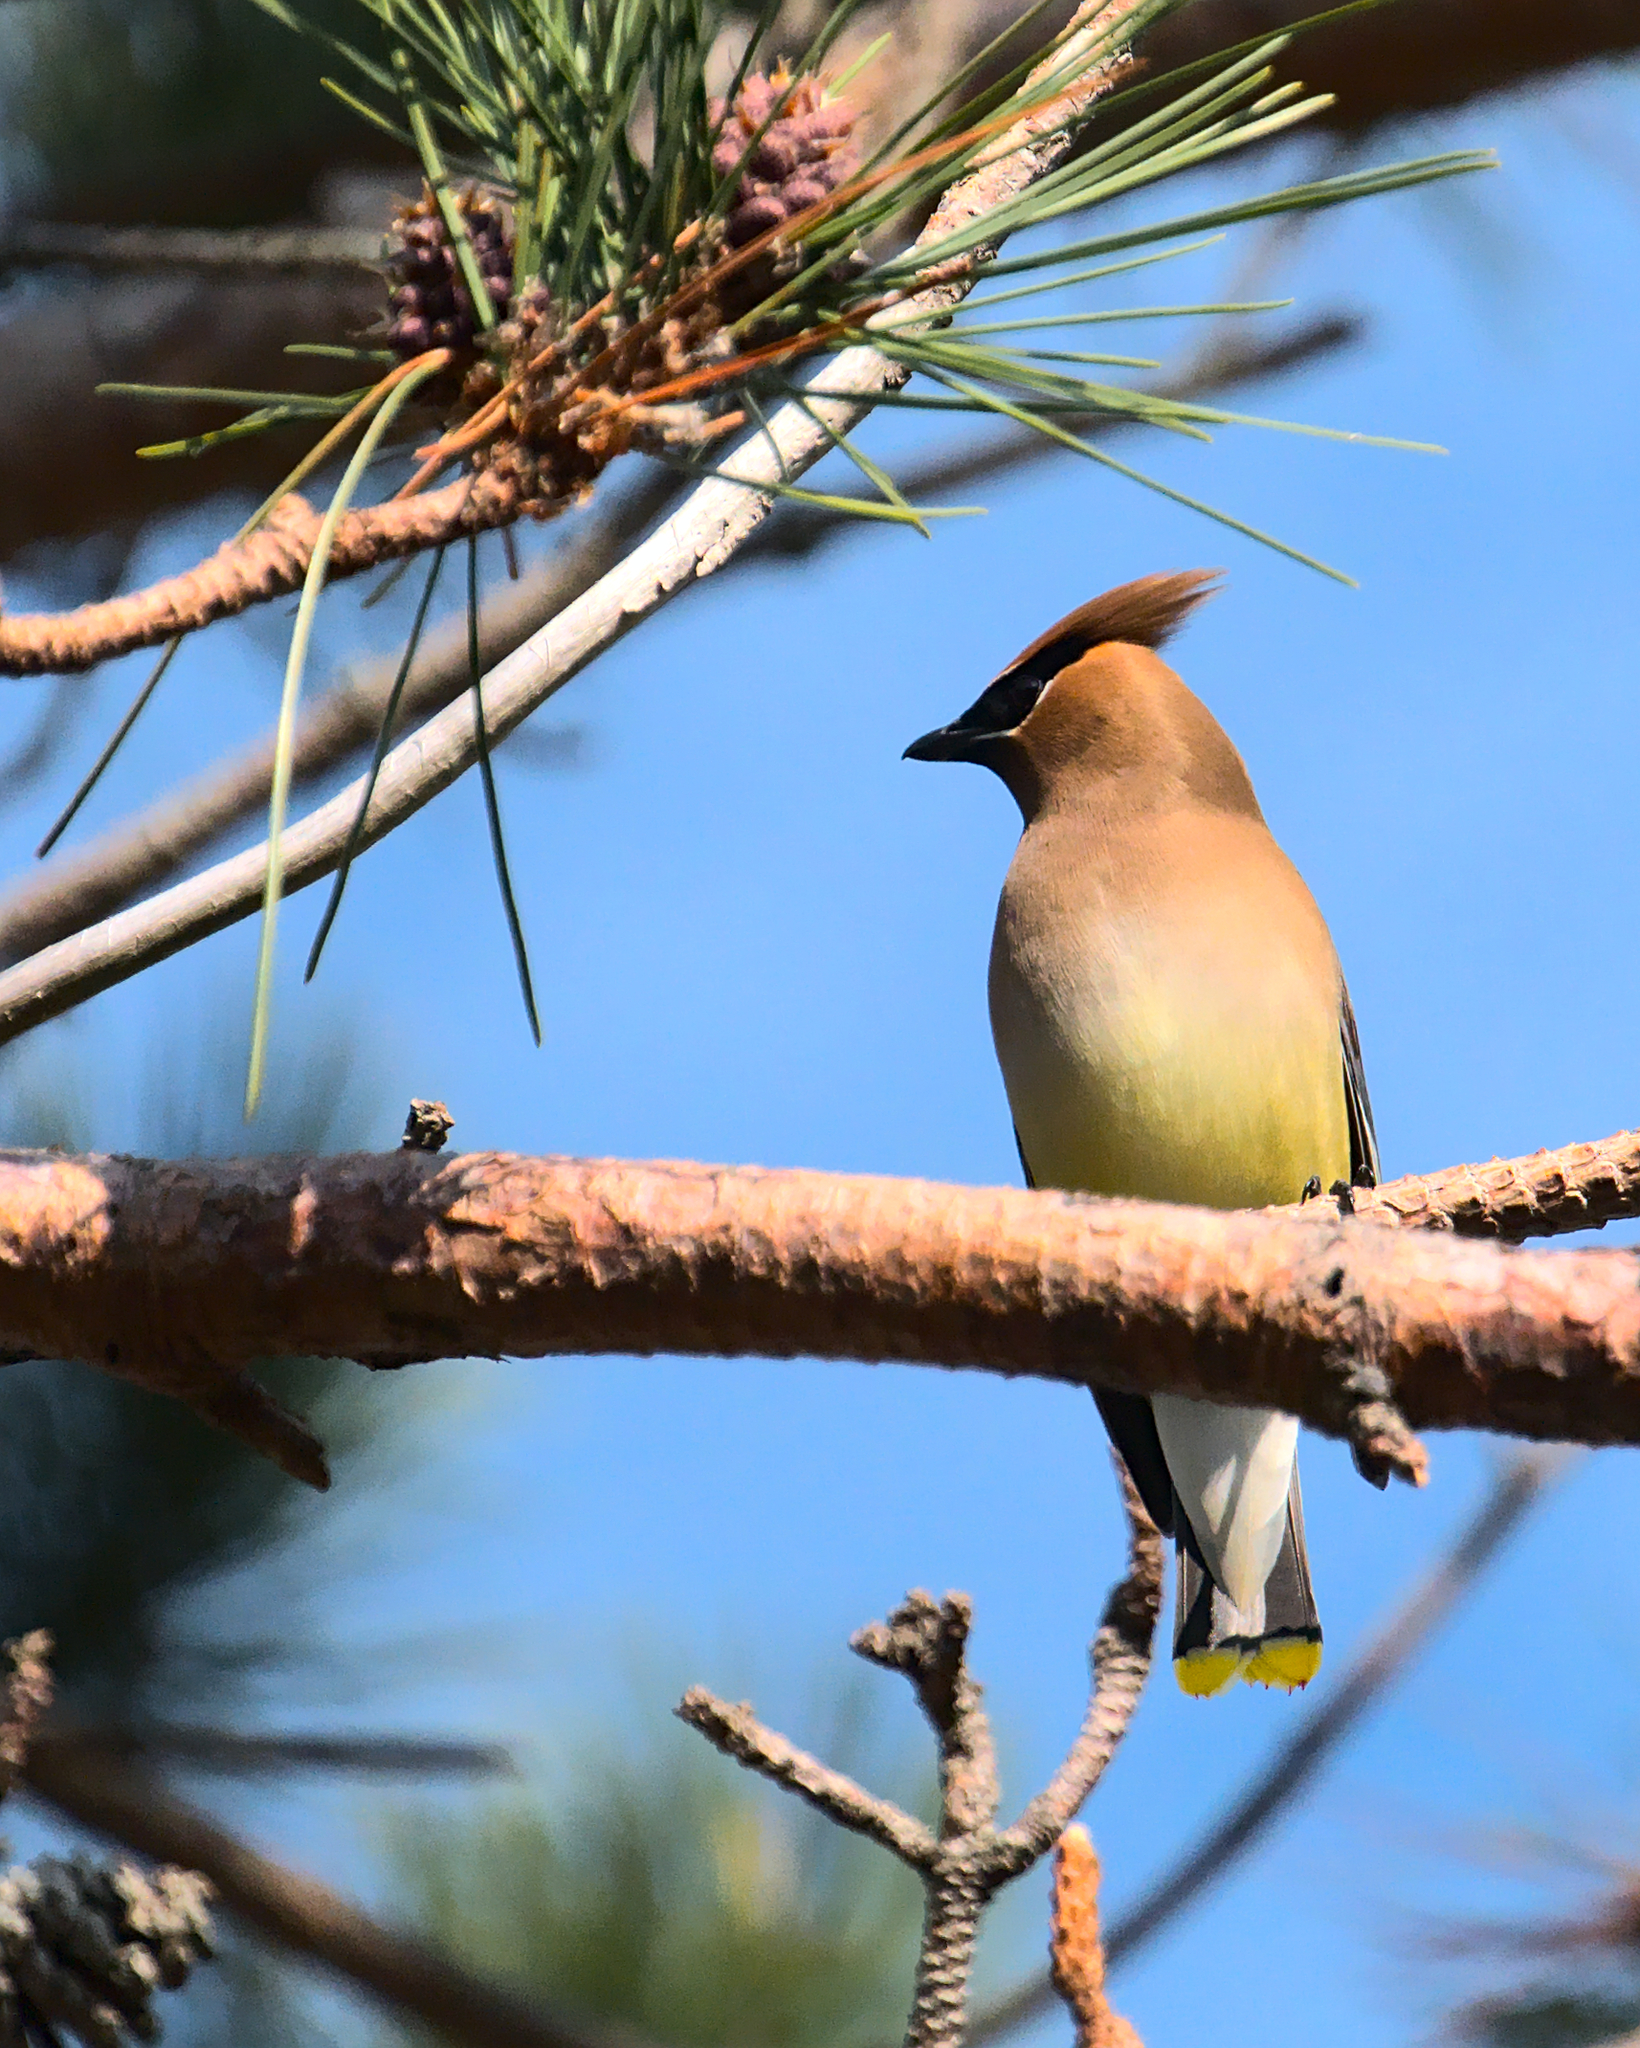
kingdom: Animalia
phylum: Chordata
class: Aves
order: Passeriformes
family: Bombycillidae
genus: Bombycilla
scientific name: Bombycilla cedrorum
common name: Cedar waxwing
